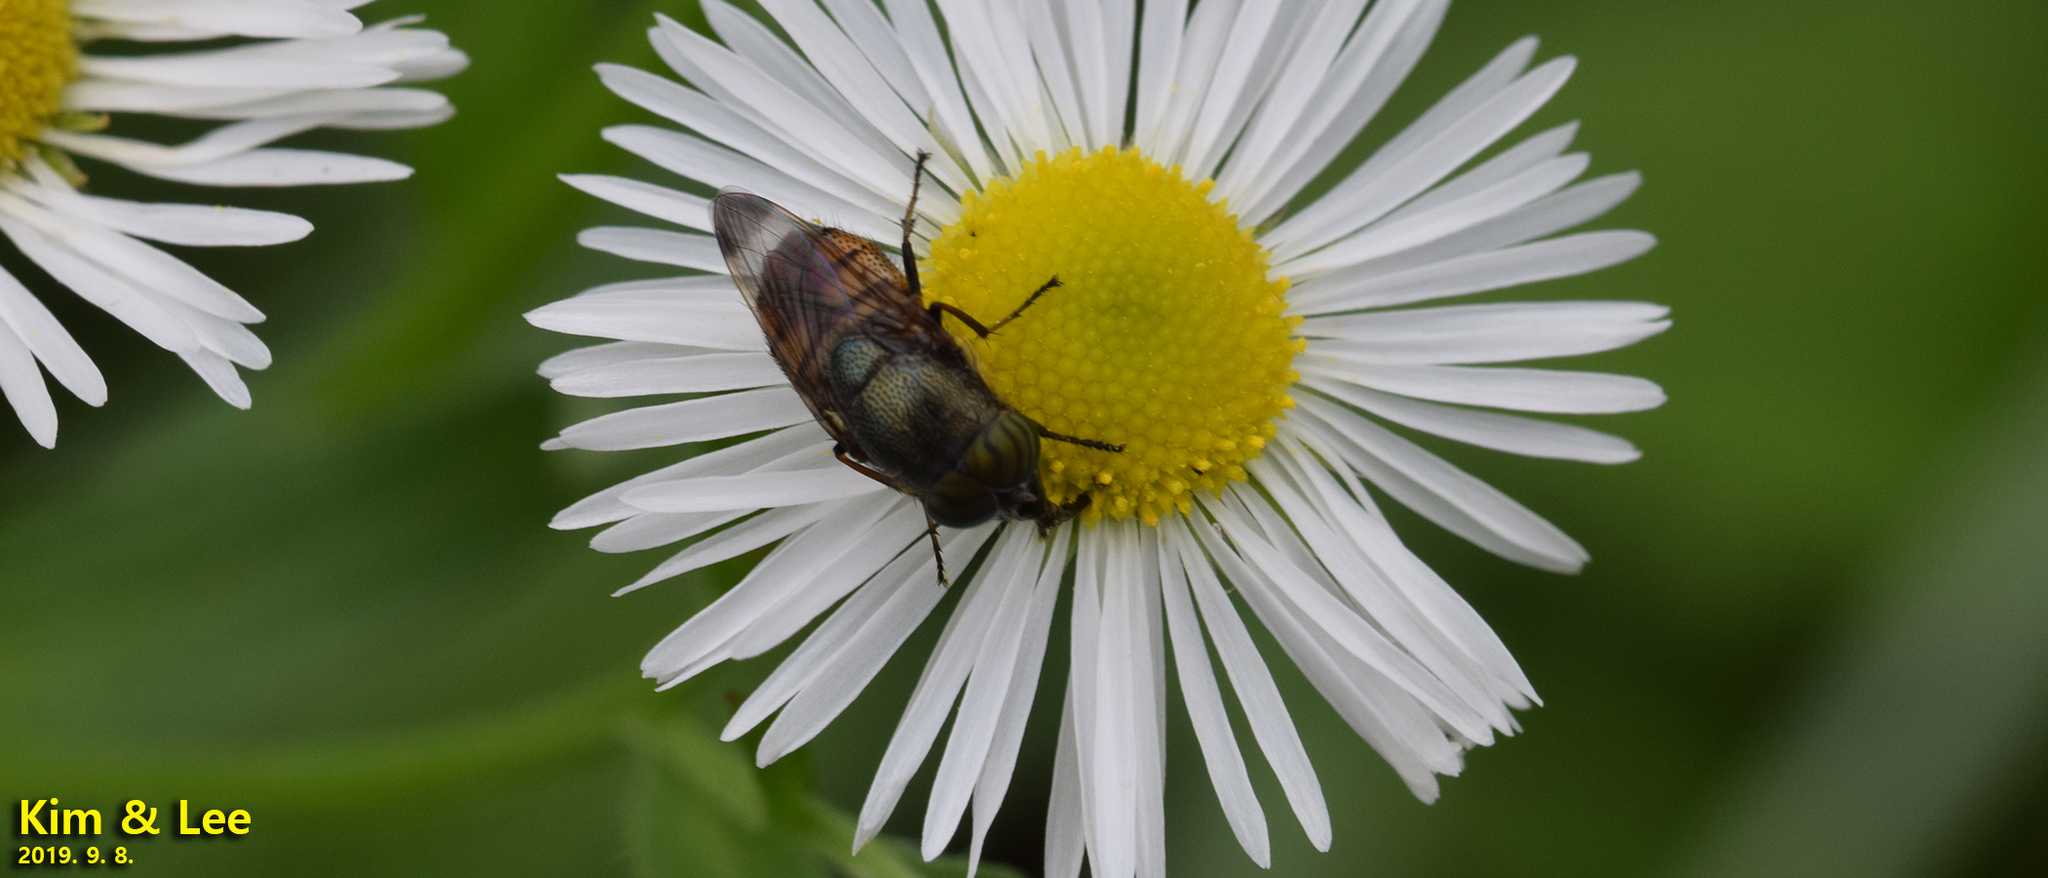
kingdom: Animalia
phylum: Arthropoda
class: Insecta
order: Diptera
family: Calliphoridae
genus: Rhinia
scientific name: Rhinia obsoleta
